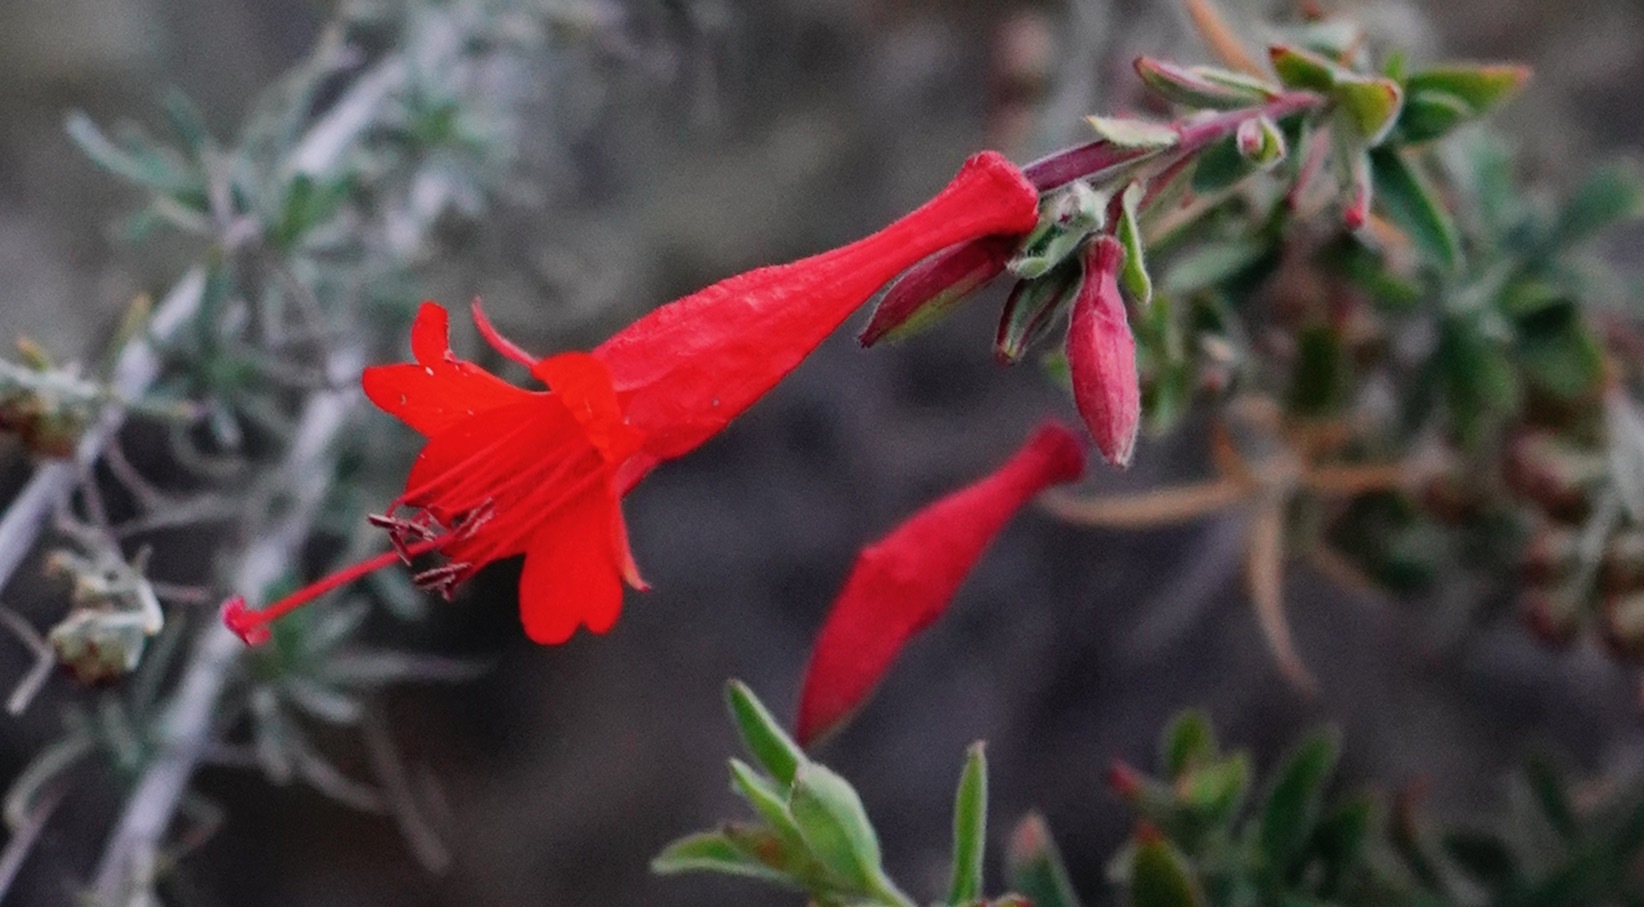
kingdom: Plantae
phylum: Tracheophyta
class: Magnoliopsida
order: Myrtales
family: Onagraceae
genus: Epilobium
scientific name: Epilobium canum
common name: California-fuchsia
